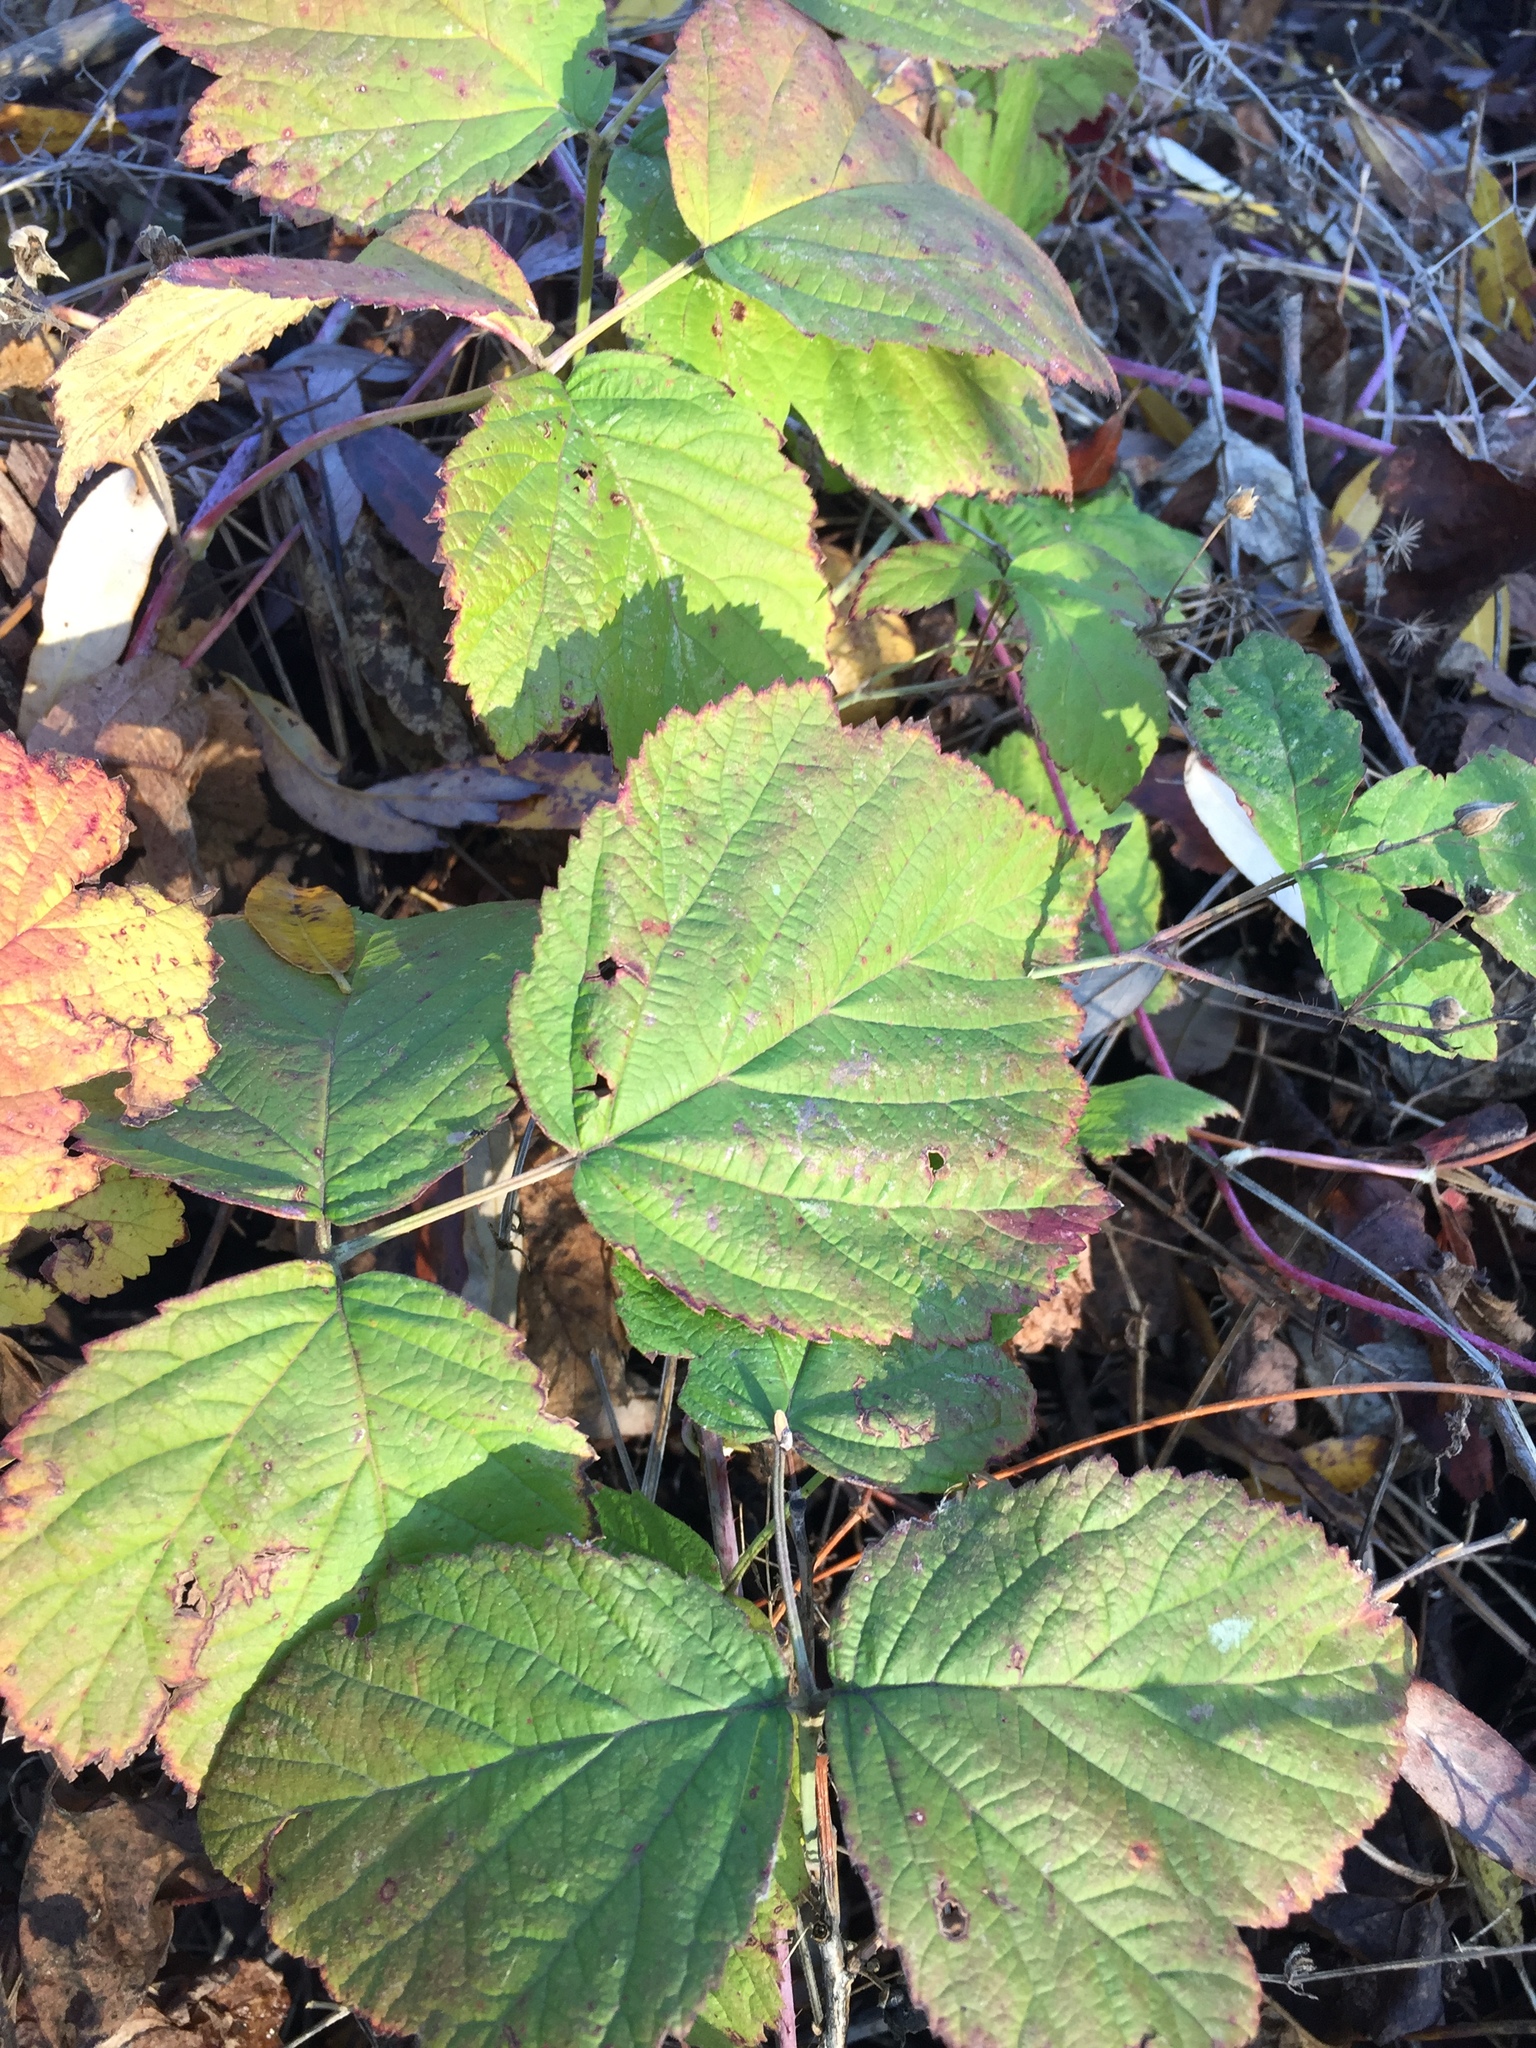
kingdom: Plantae
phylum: Tracheophyta
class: Magnoliopsida
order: Rosales
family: Rosaceae
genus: Rubus
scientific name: Rubus caesius
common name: Dewberry
